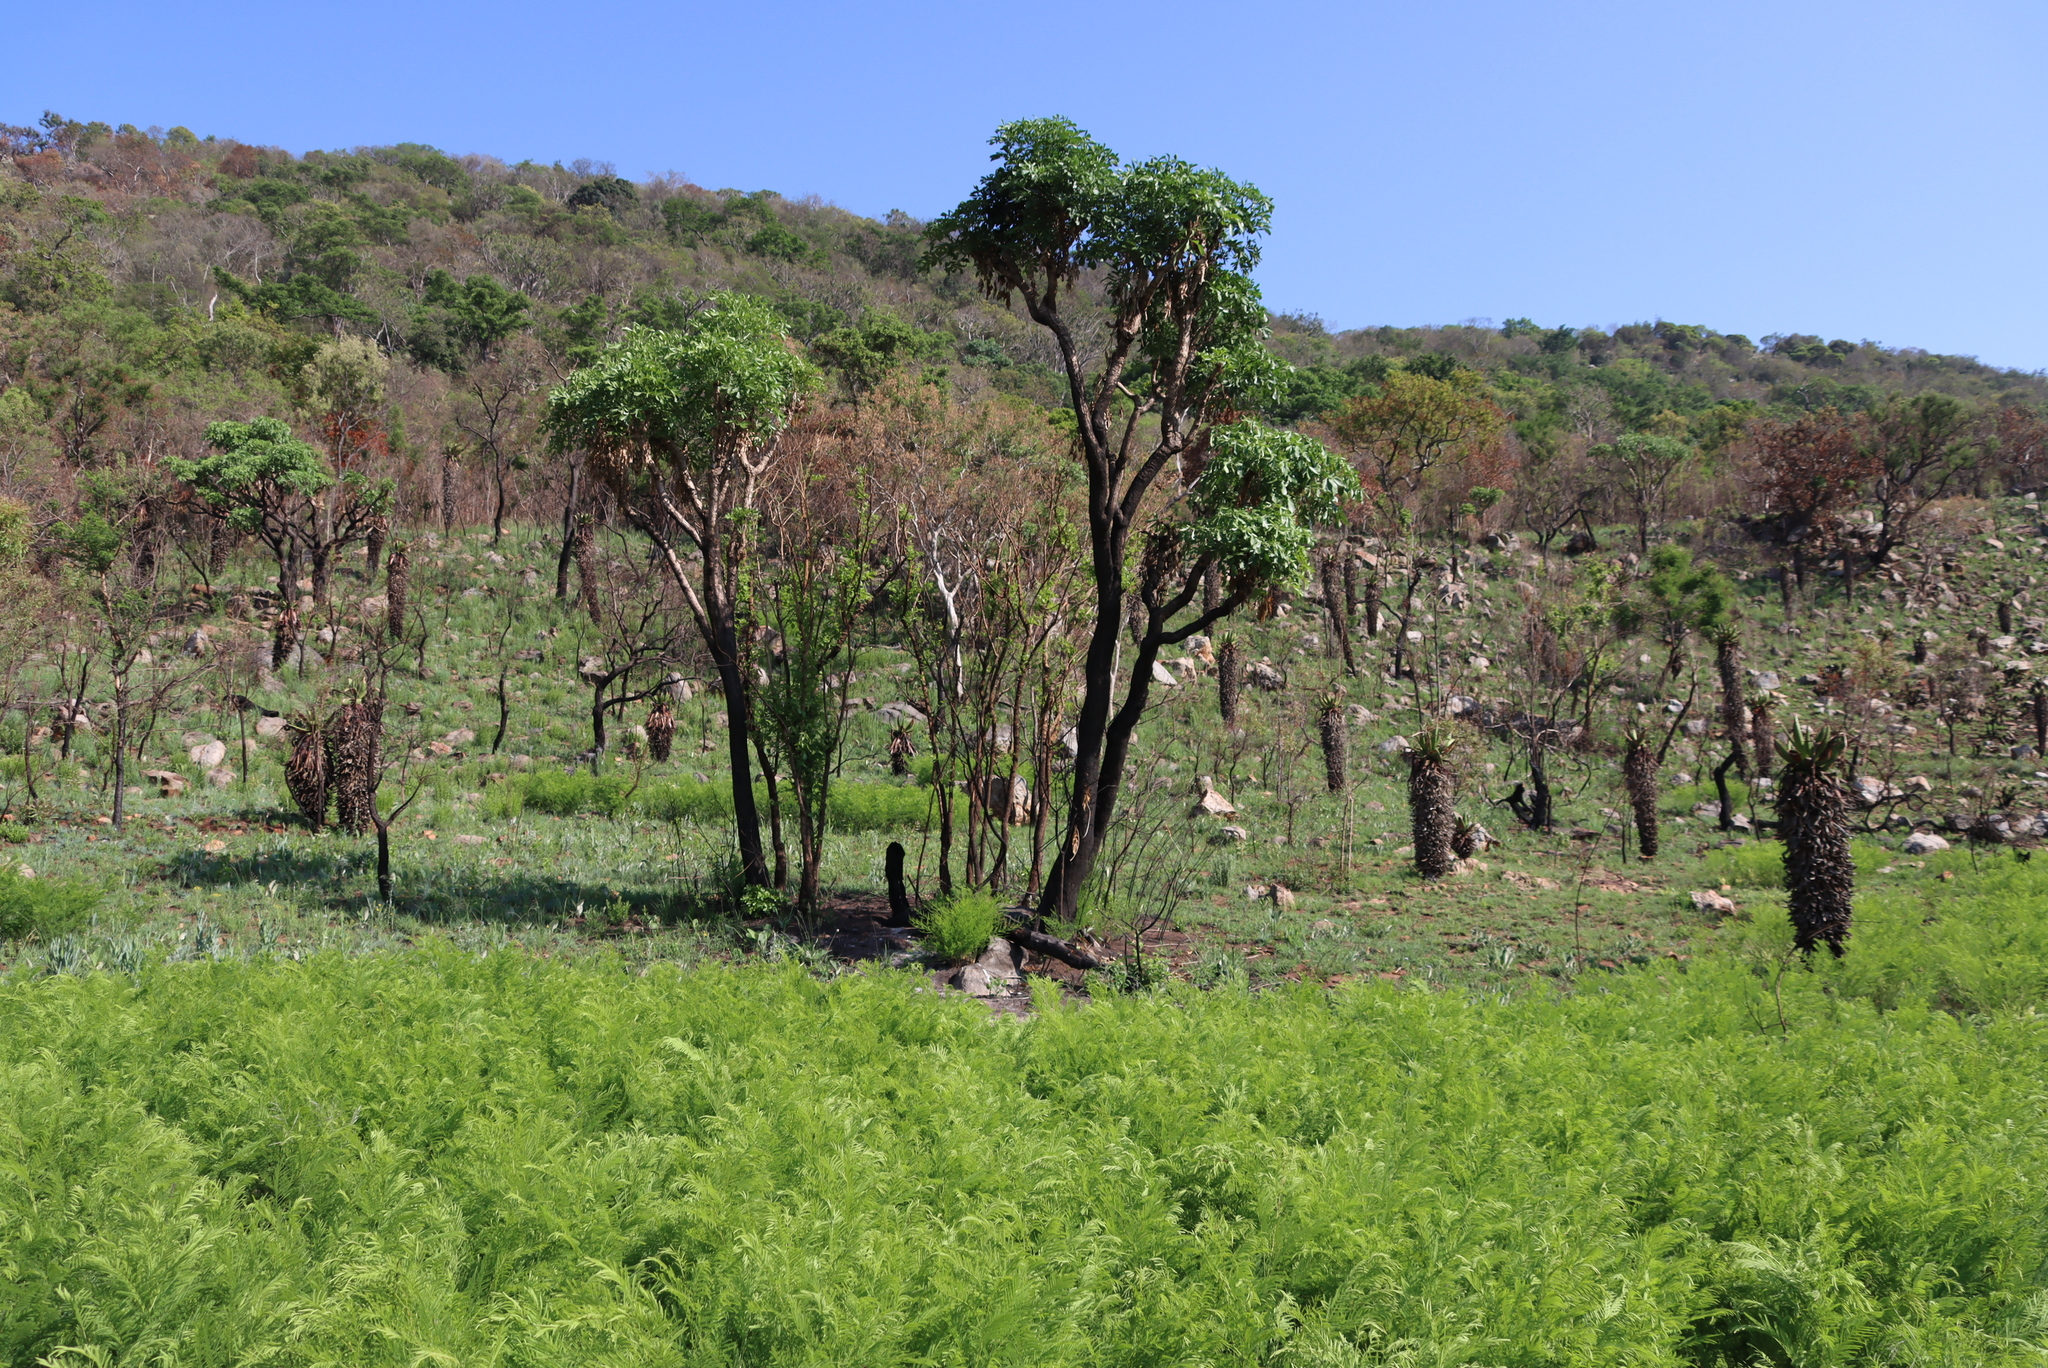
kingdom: Plantae
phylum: Tracheophyta
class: Magnoliopsida
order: Apiales
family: Araliaceae
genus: Cussonia
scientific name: Cussonia spicata
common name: Common cabbagetree
